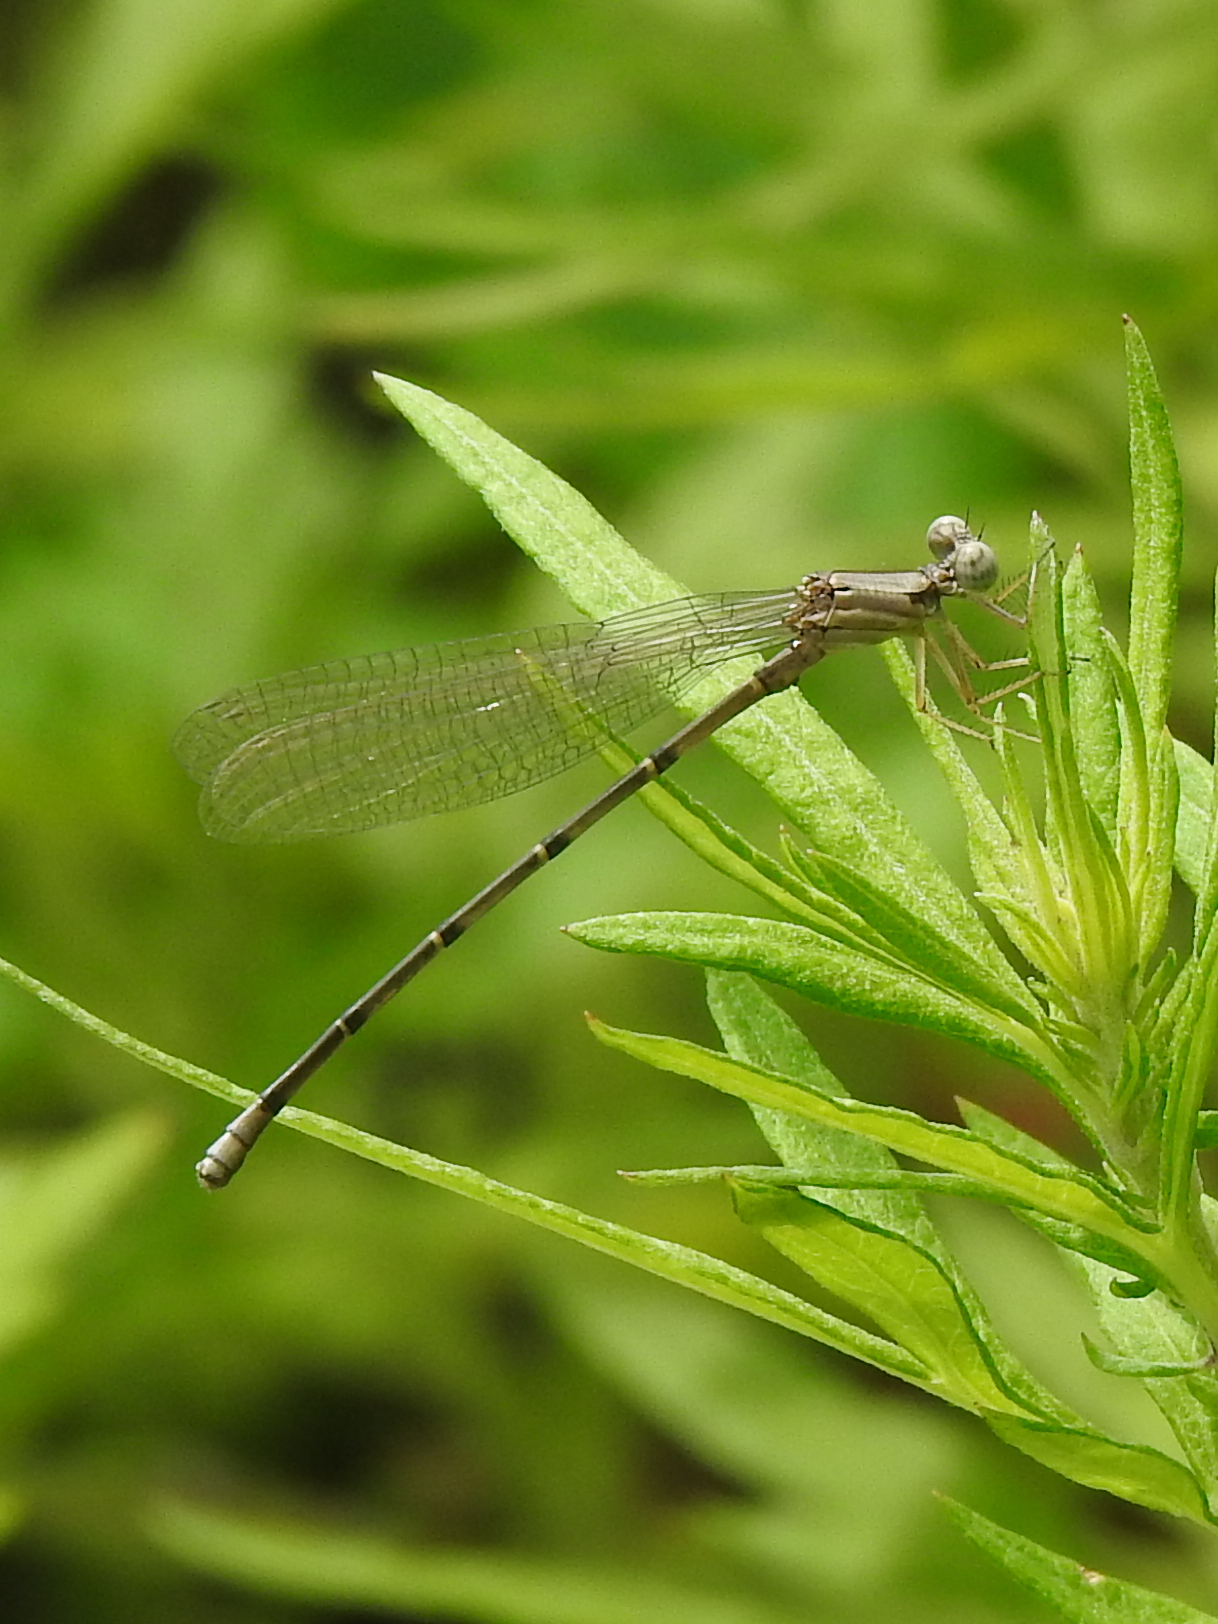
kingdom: Animalia
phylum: Arthropoda
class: Insecta
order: Odonata
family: Coenagrionidae
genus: Argia
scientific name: Argia apicalis
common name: Blue-fronted dancer
